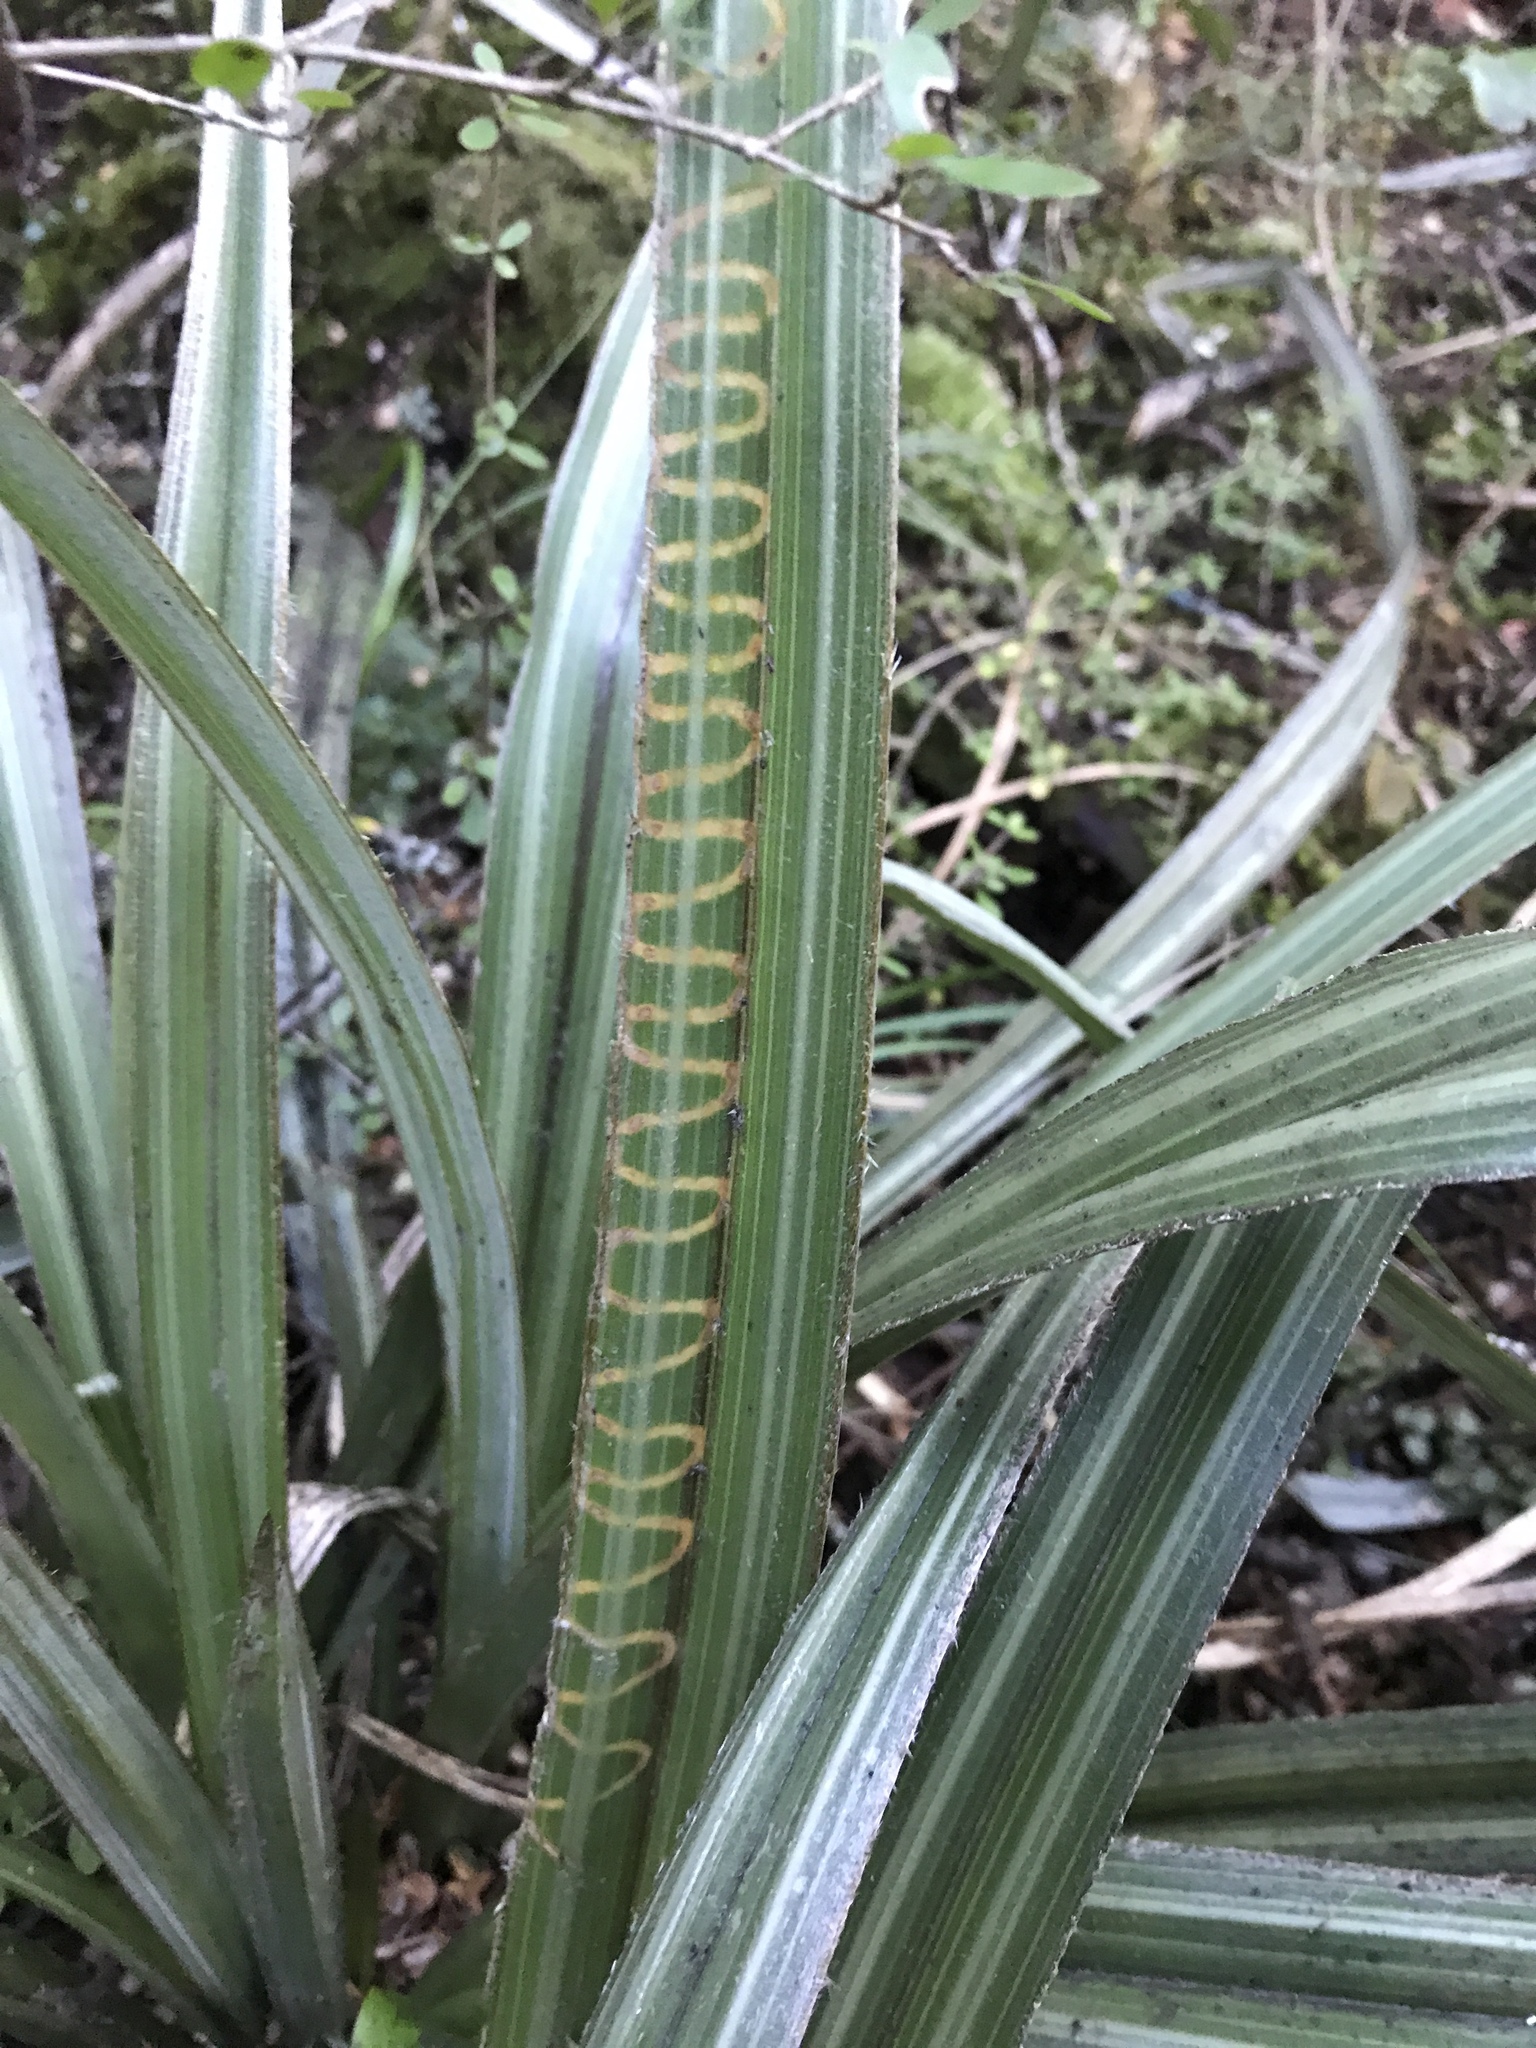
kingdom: Plantae
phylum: Tracheophyta
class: Liliopsida
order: Asparagales
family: Asteliaceae
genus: Astelia
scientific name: Astelia nervosa
